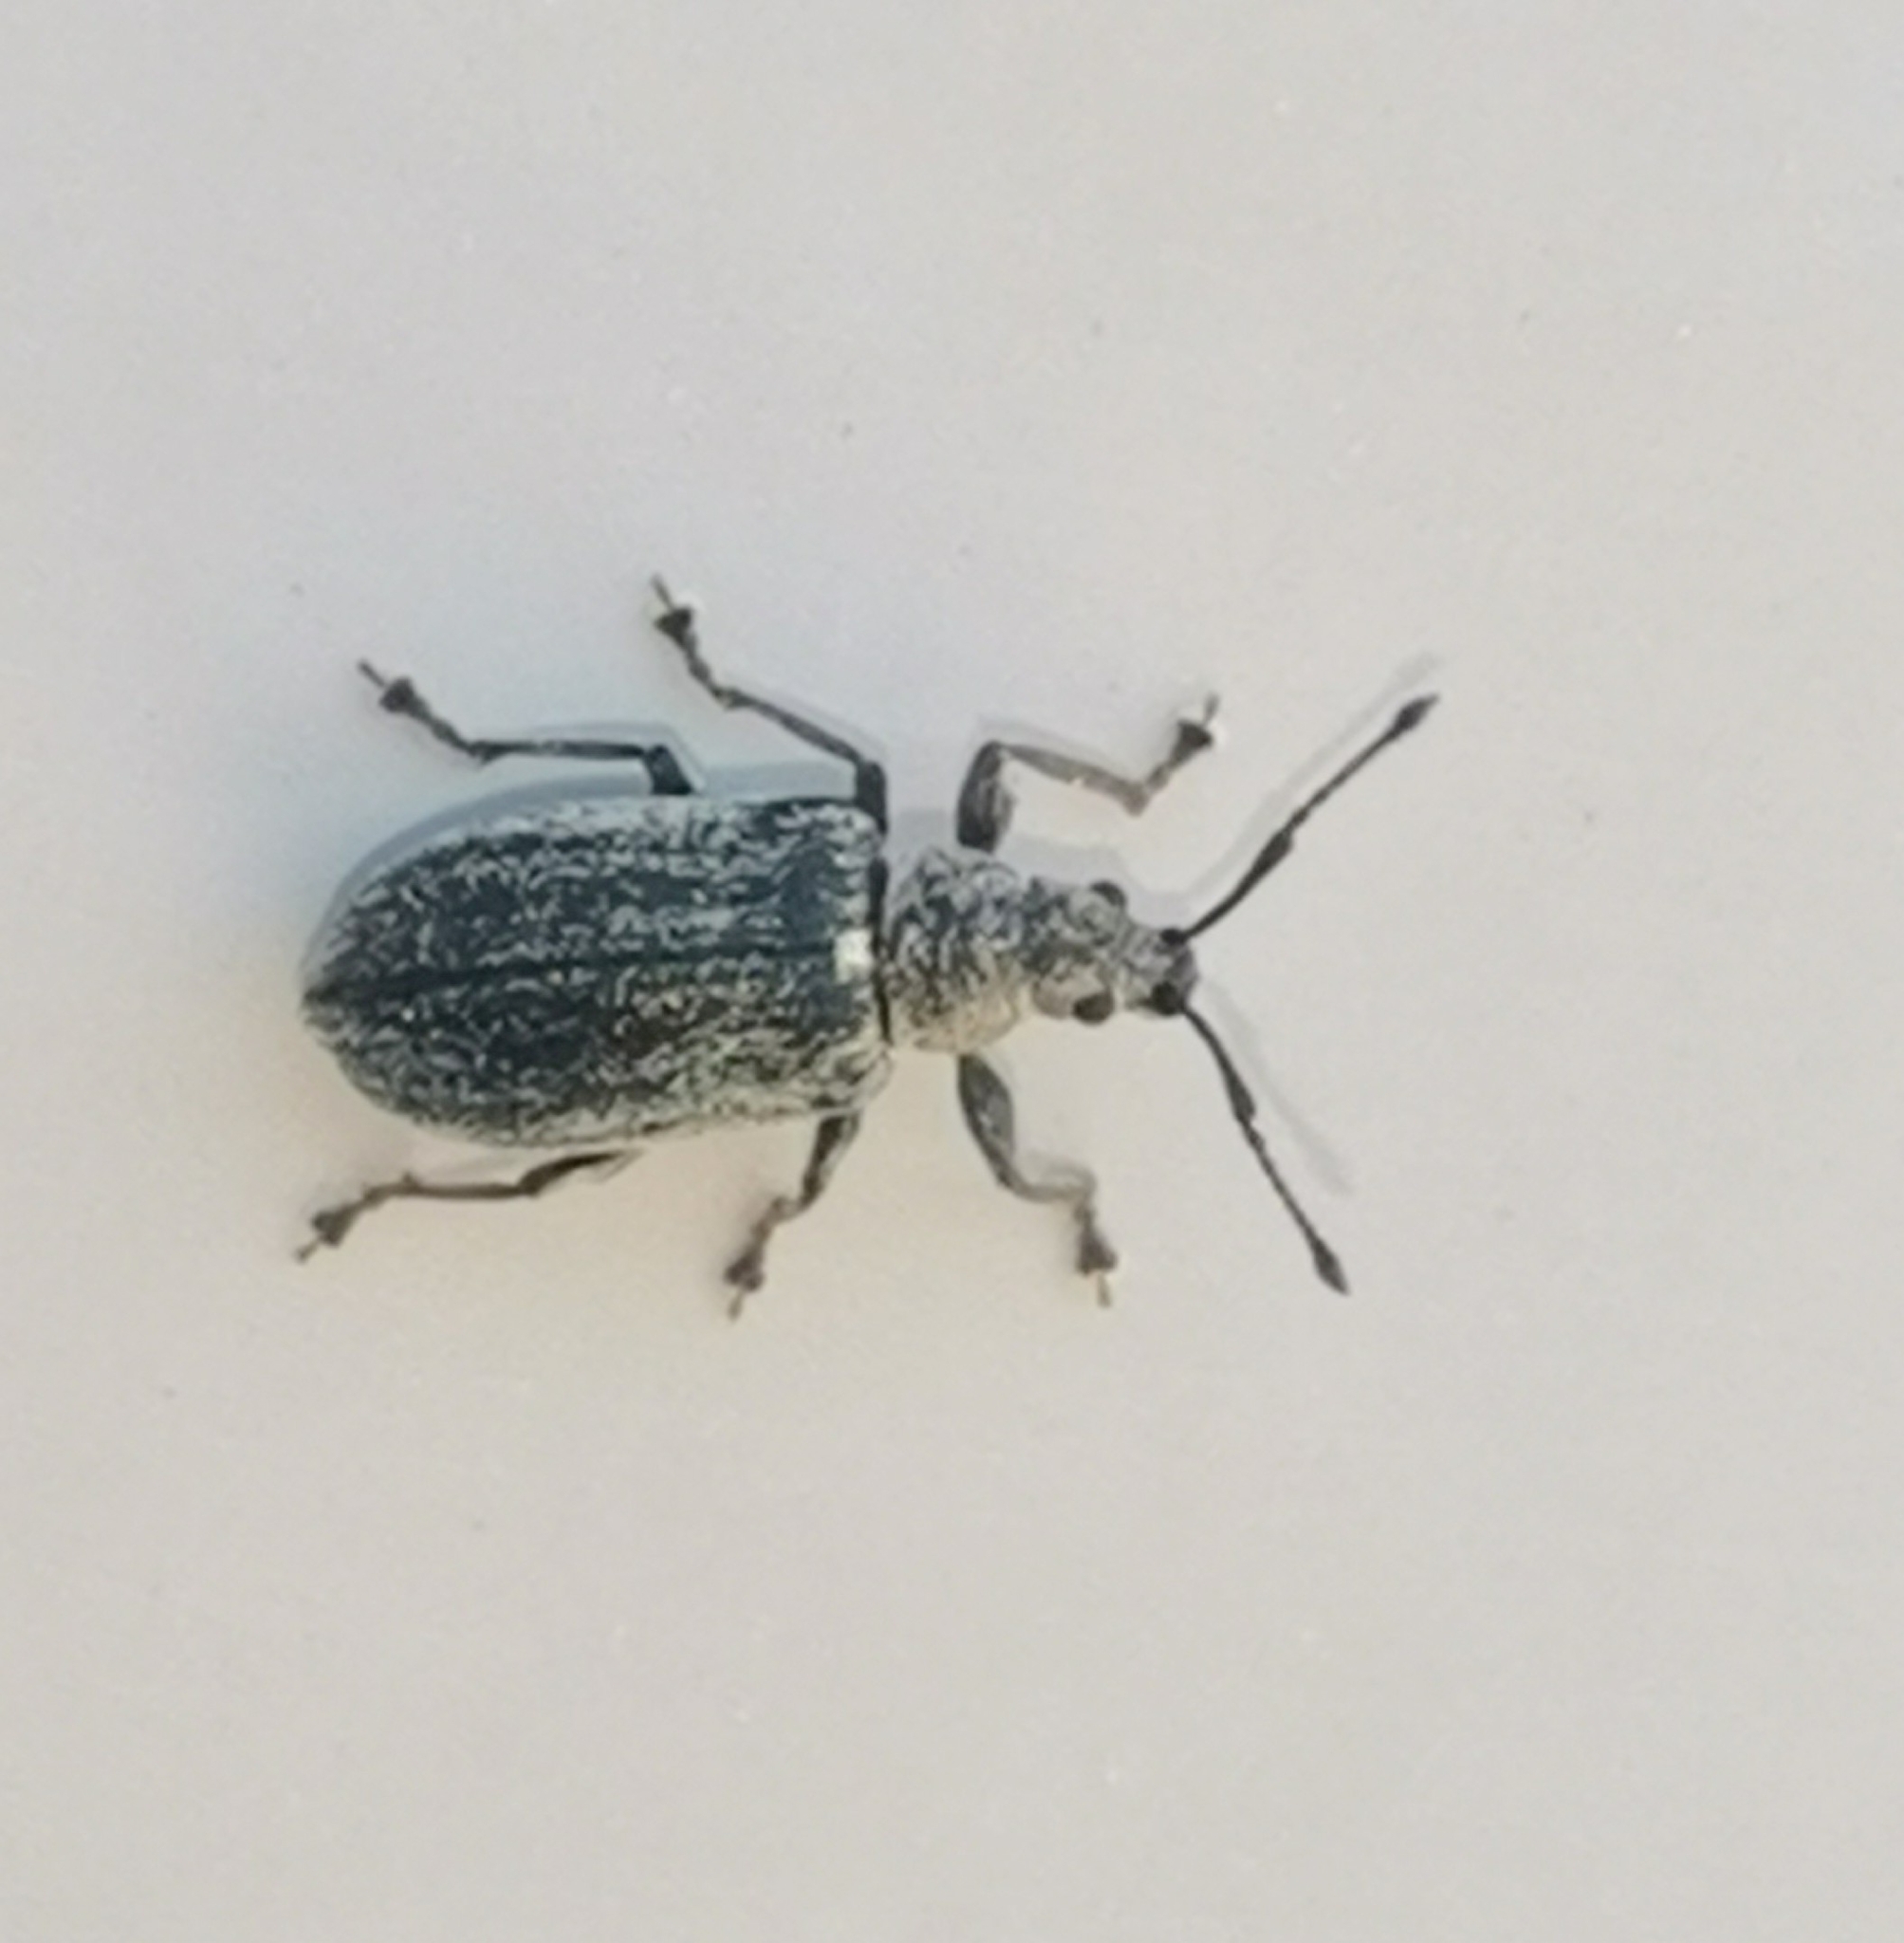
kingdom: Animalia
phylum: Arthropoda
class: Insecta
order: Coleoptera
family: Curculionidae
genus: Phyllobius
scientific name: Phyllobius pyri
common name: Common leaf weevil
